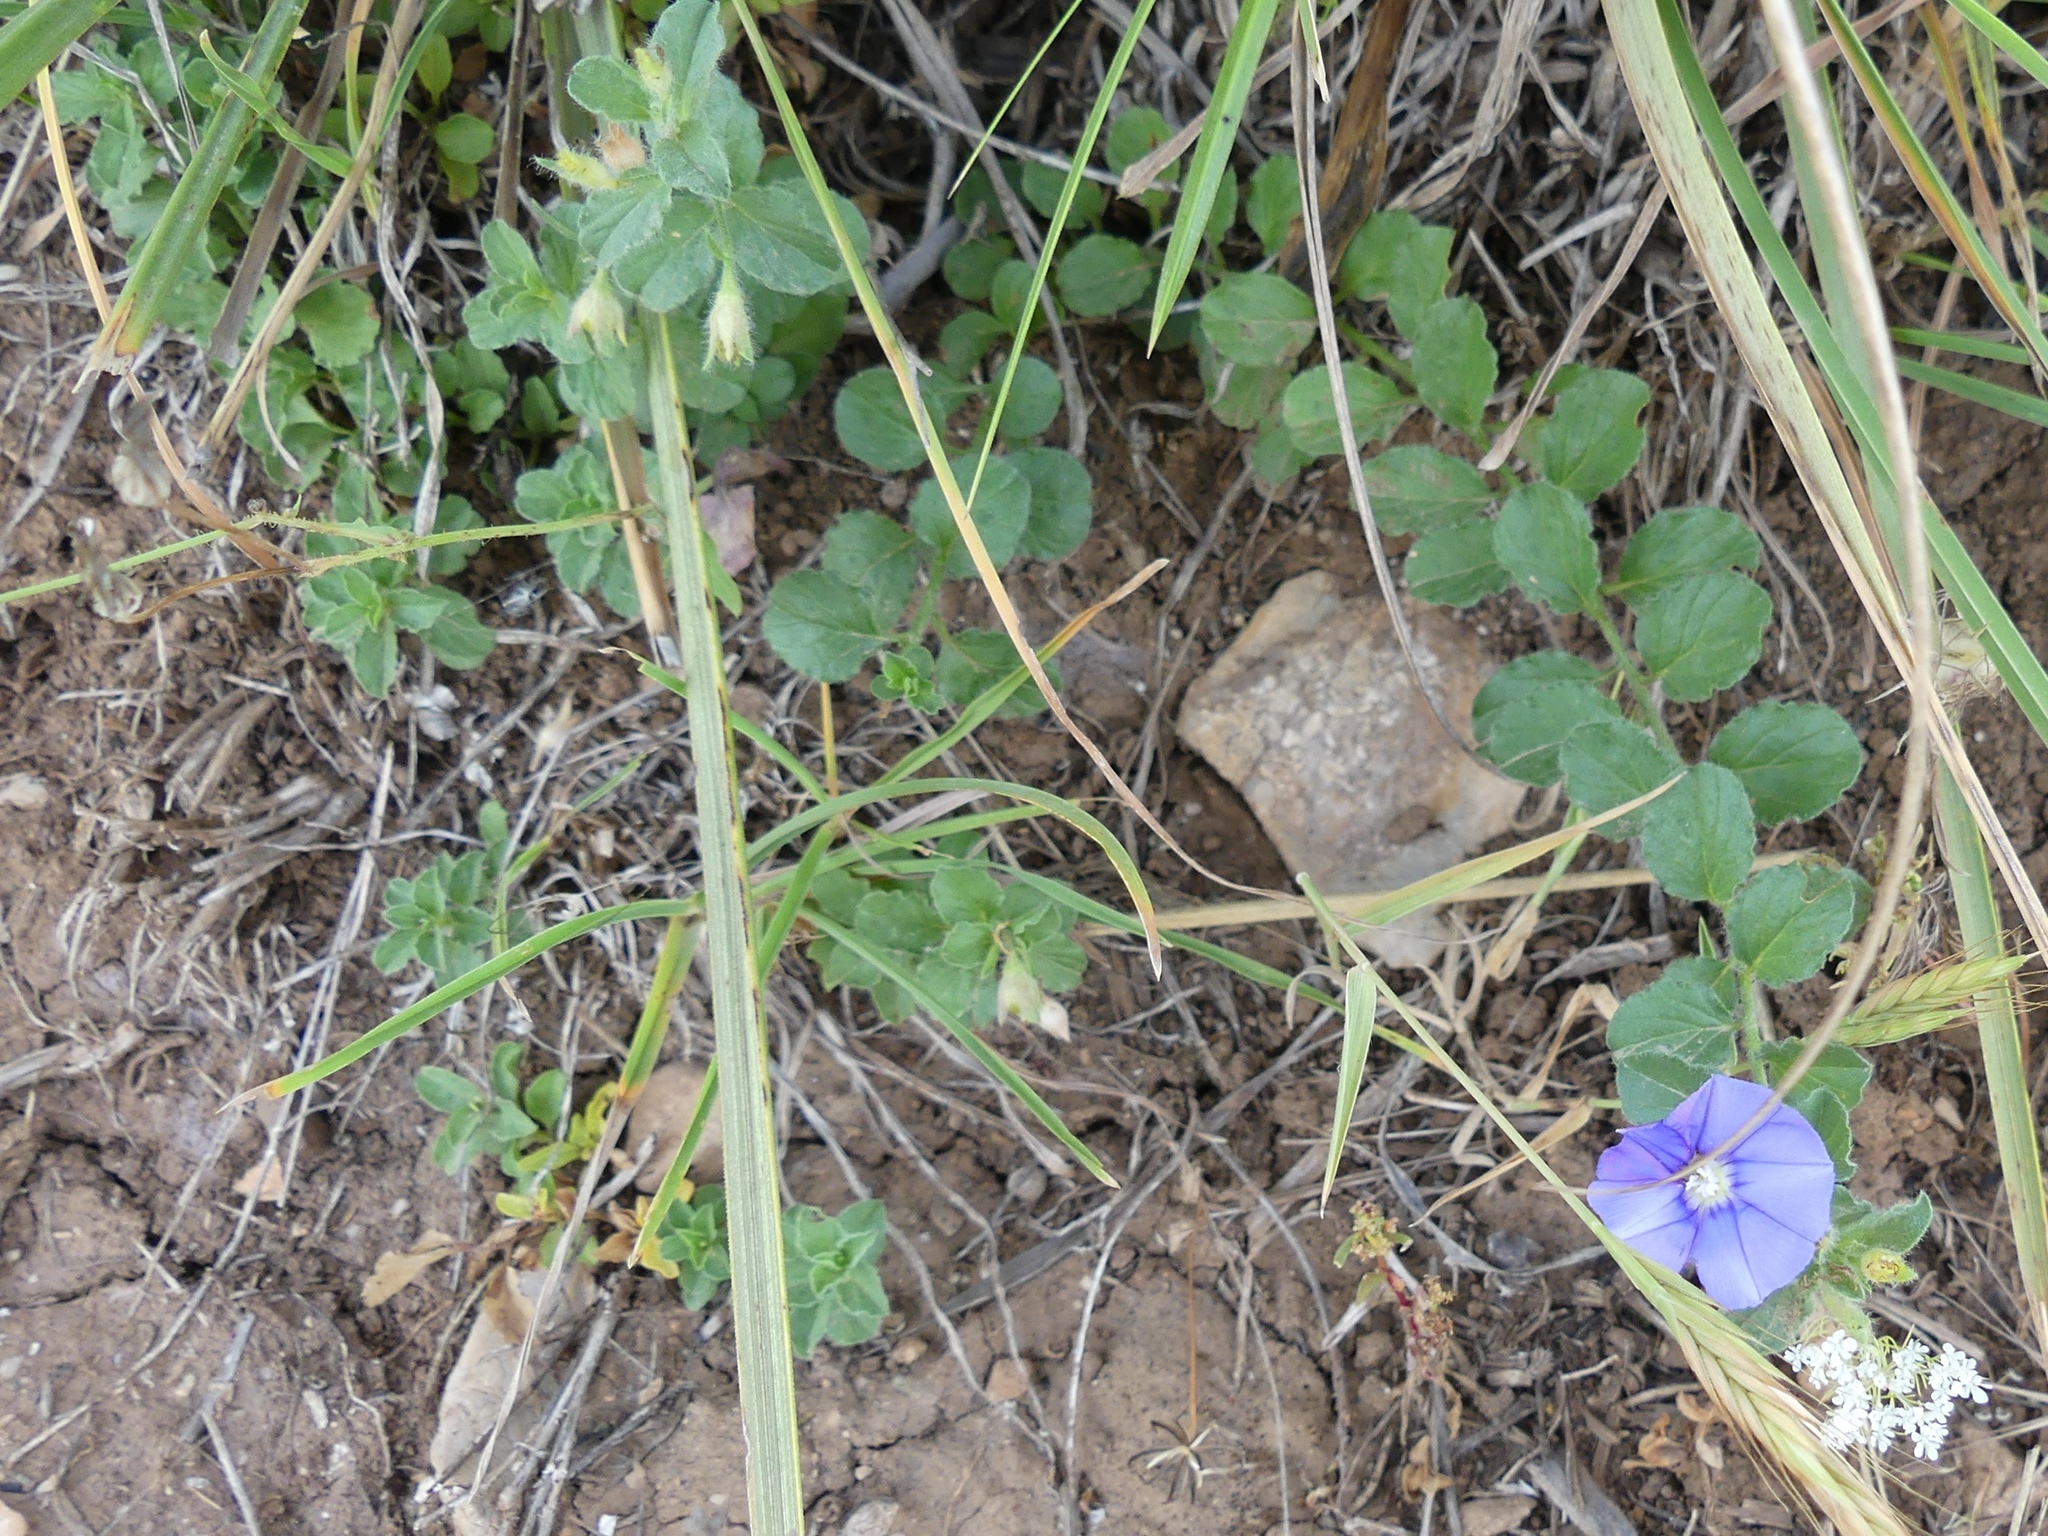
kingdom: Plantae
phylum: Tracheophyta
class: Magnoliopsida
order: Solanales
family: Convolvulaceae
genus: Convolvulus
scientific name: Convolvulus sabatius
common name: Ground blue-convolvulus
